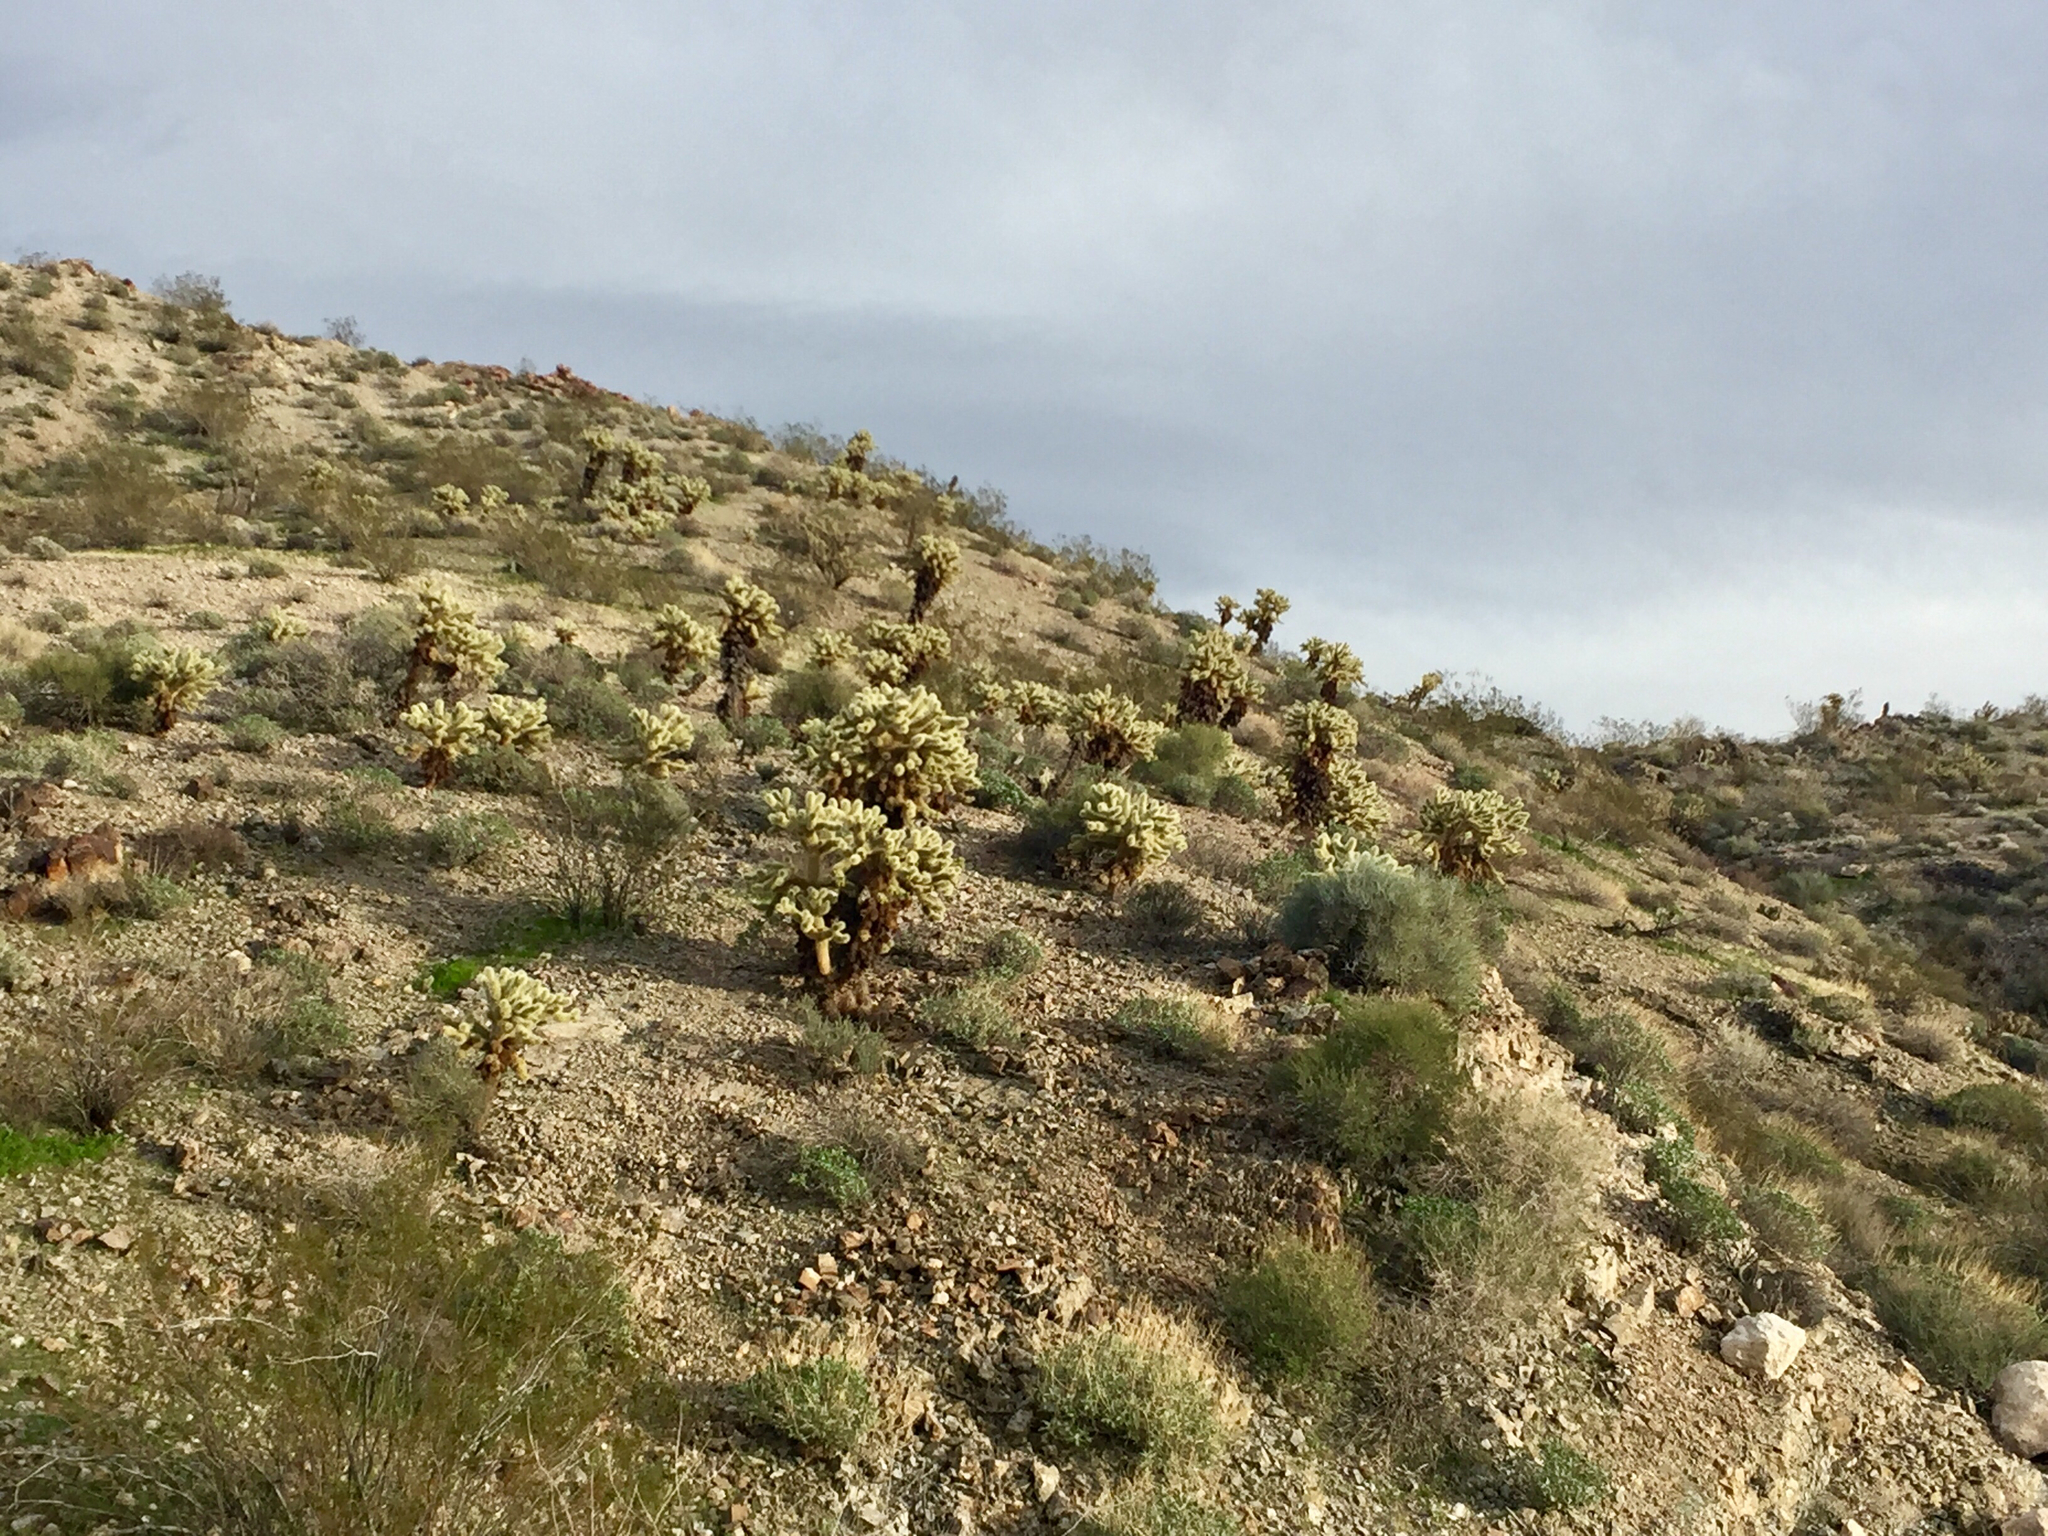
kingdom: Plantae
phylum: Tracheophyta
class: Magnoliopsida
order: Caryophyllales
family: Cactaceae
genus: Cylindropuntia
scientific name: Cylindropuntia fosbergii
